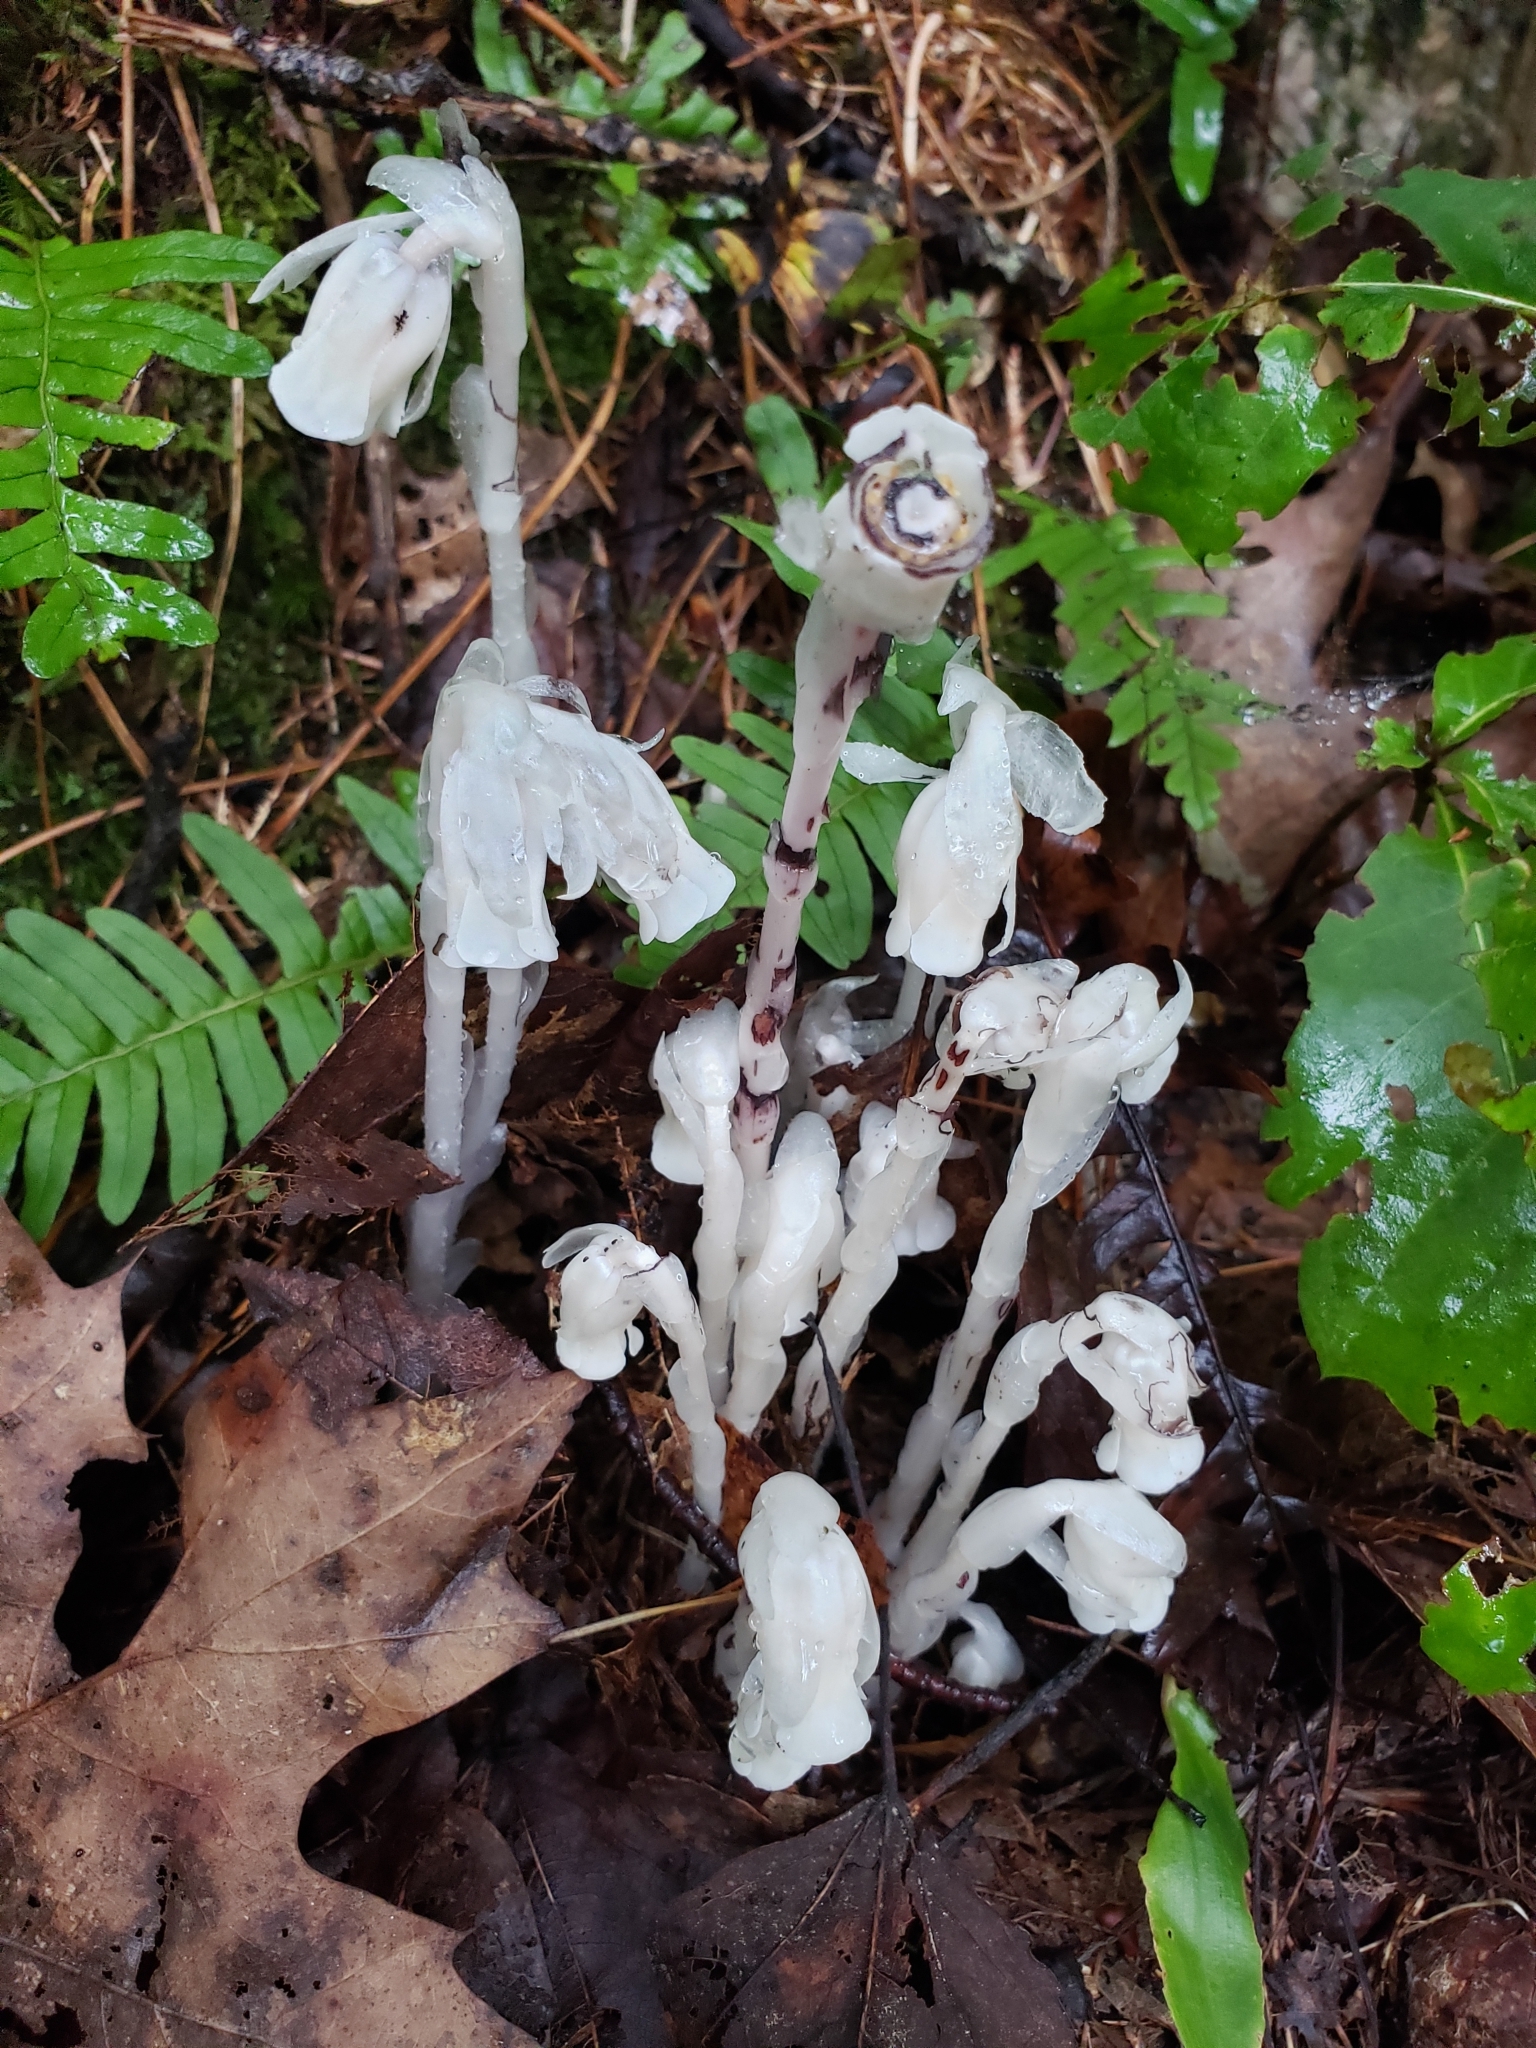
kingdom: Plantae
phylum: Tracheophyta
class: Magnoliopsida
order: Ericales
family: Ericaceae
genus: Monotropa
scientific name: Monotropa uniflora
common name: Convulsion root
